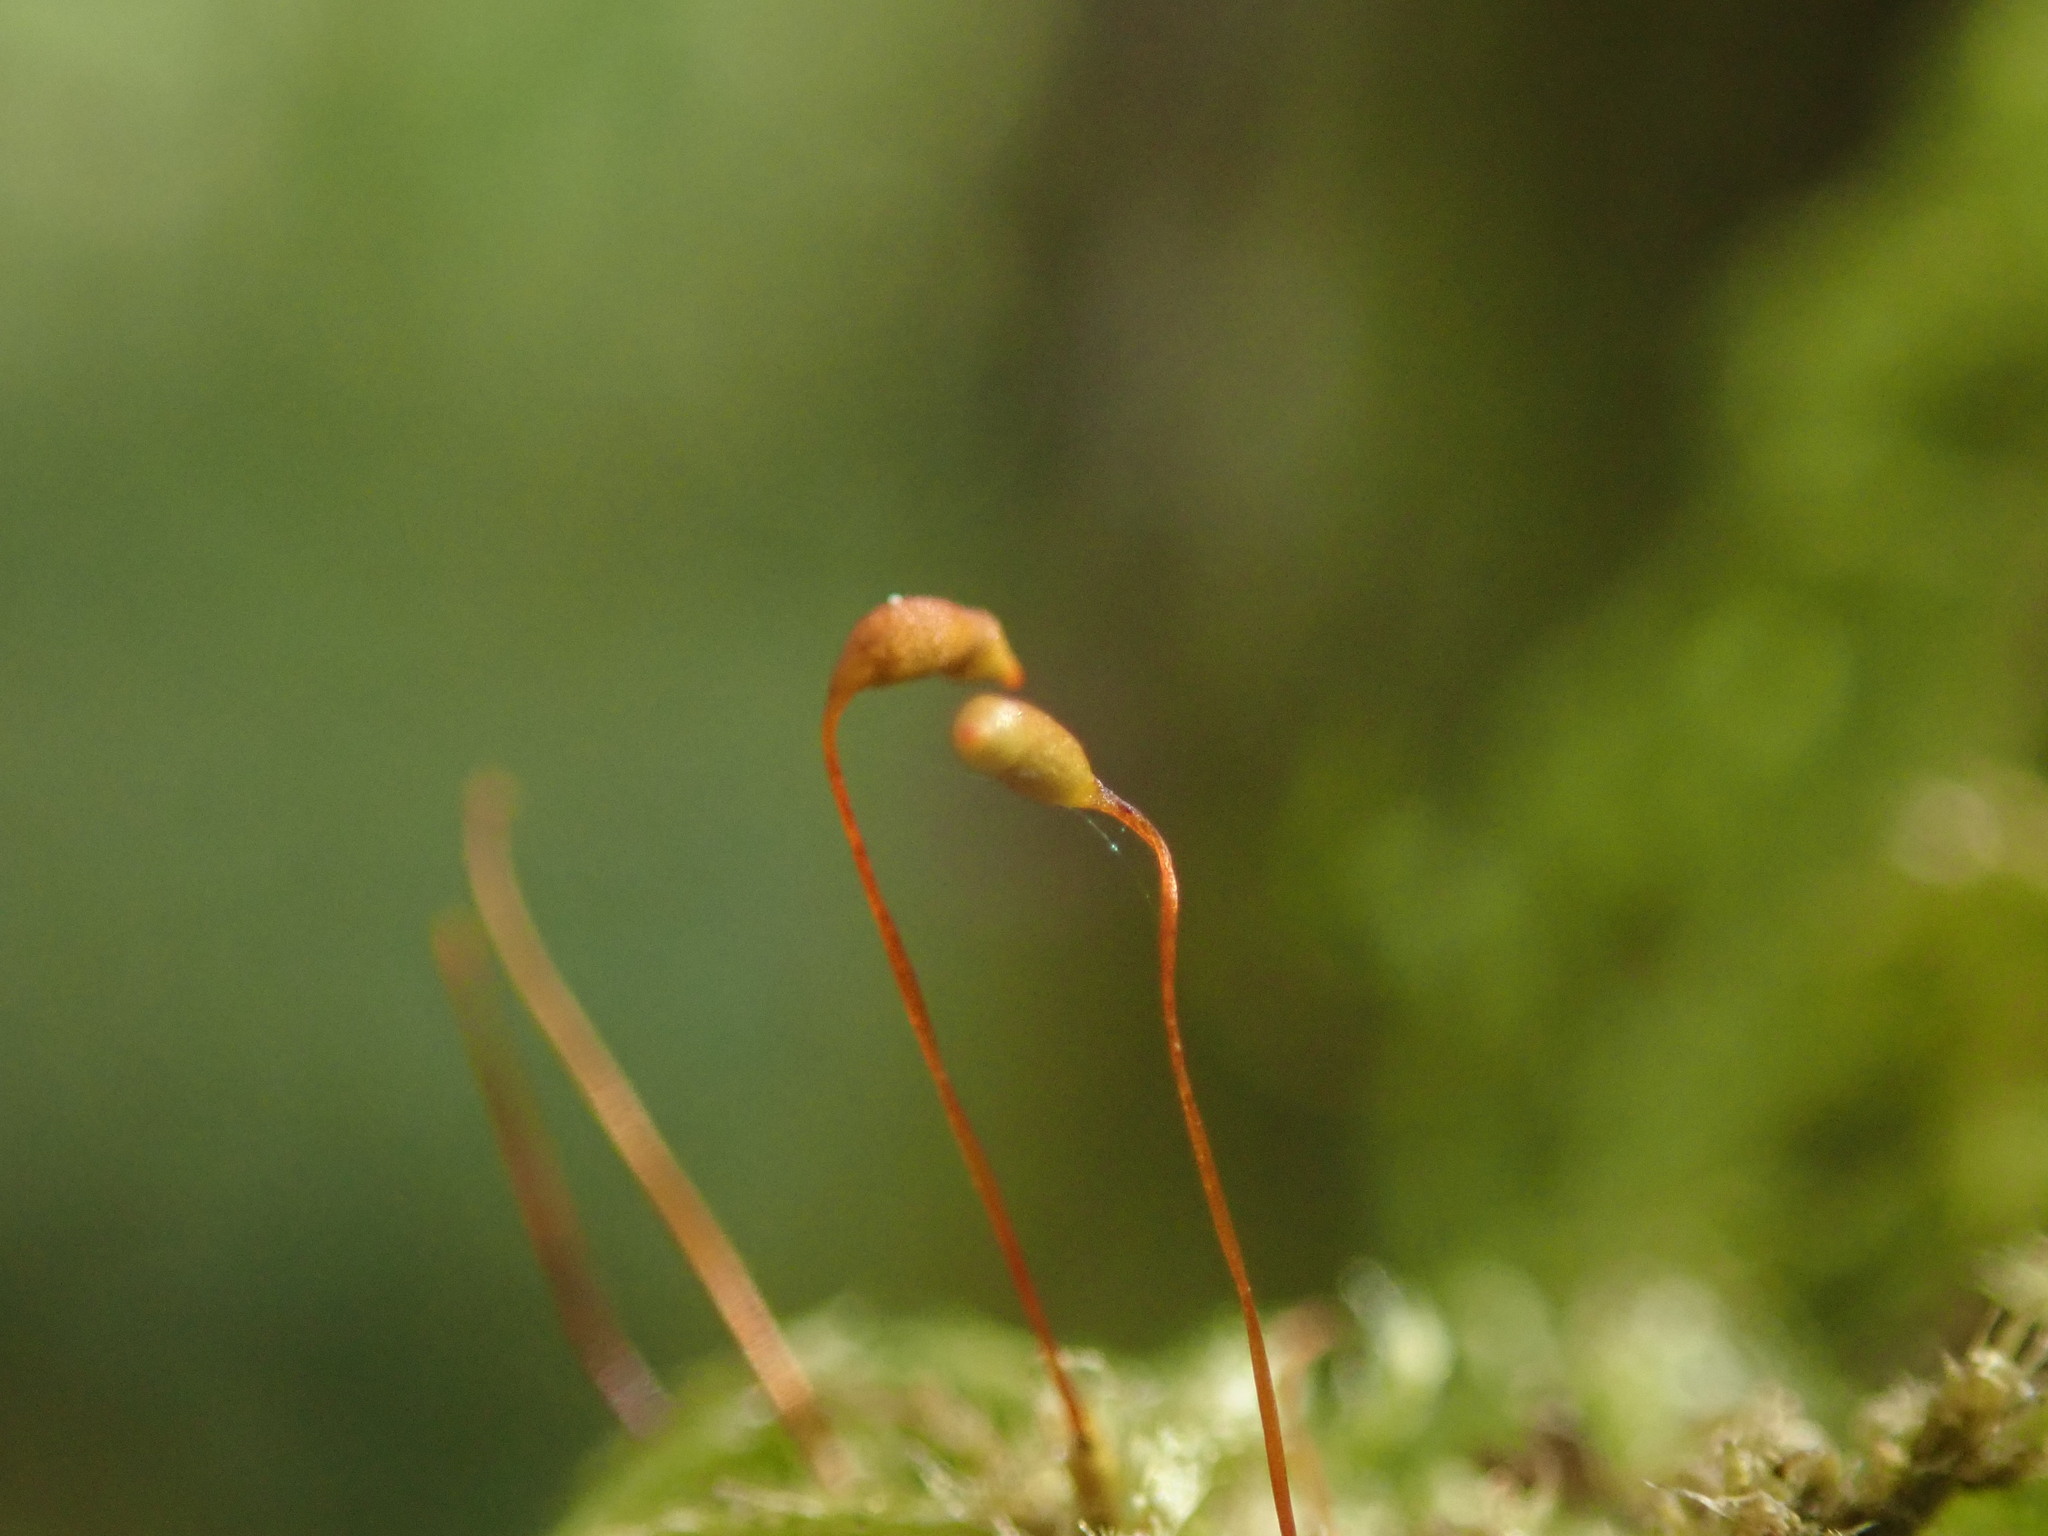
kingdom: Plantae
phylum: Bryophyta
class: Bryopsida
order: Hypnales
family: Lembophyllaceae
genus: Pseudisothecium
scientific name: Pseudisothecium stoloniferum
